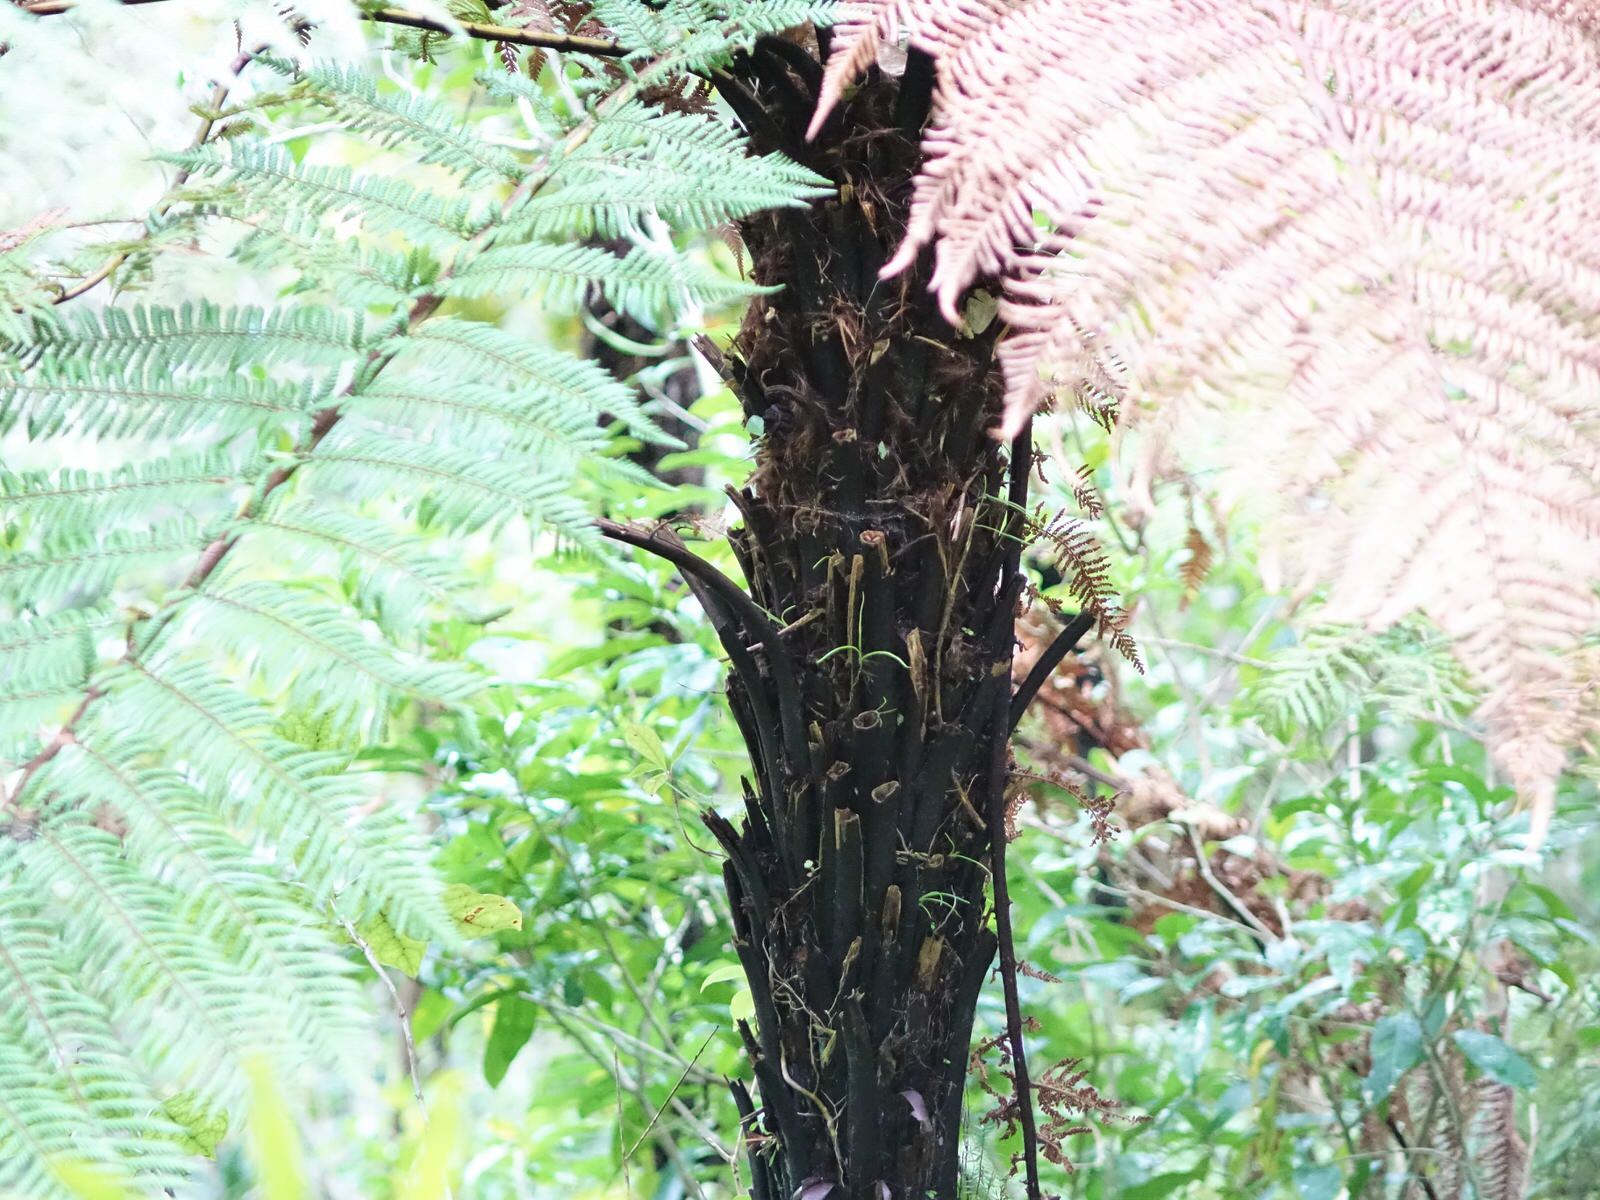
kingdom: Plantae
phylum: Tracheophyta
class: Polypodiopsida
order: Cyatheales
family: Dicksoniaceae
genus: Dicksonia
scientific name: Dicksonia squarrosa
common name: Hard treefern
